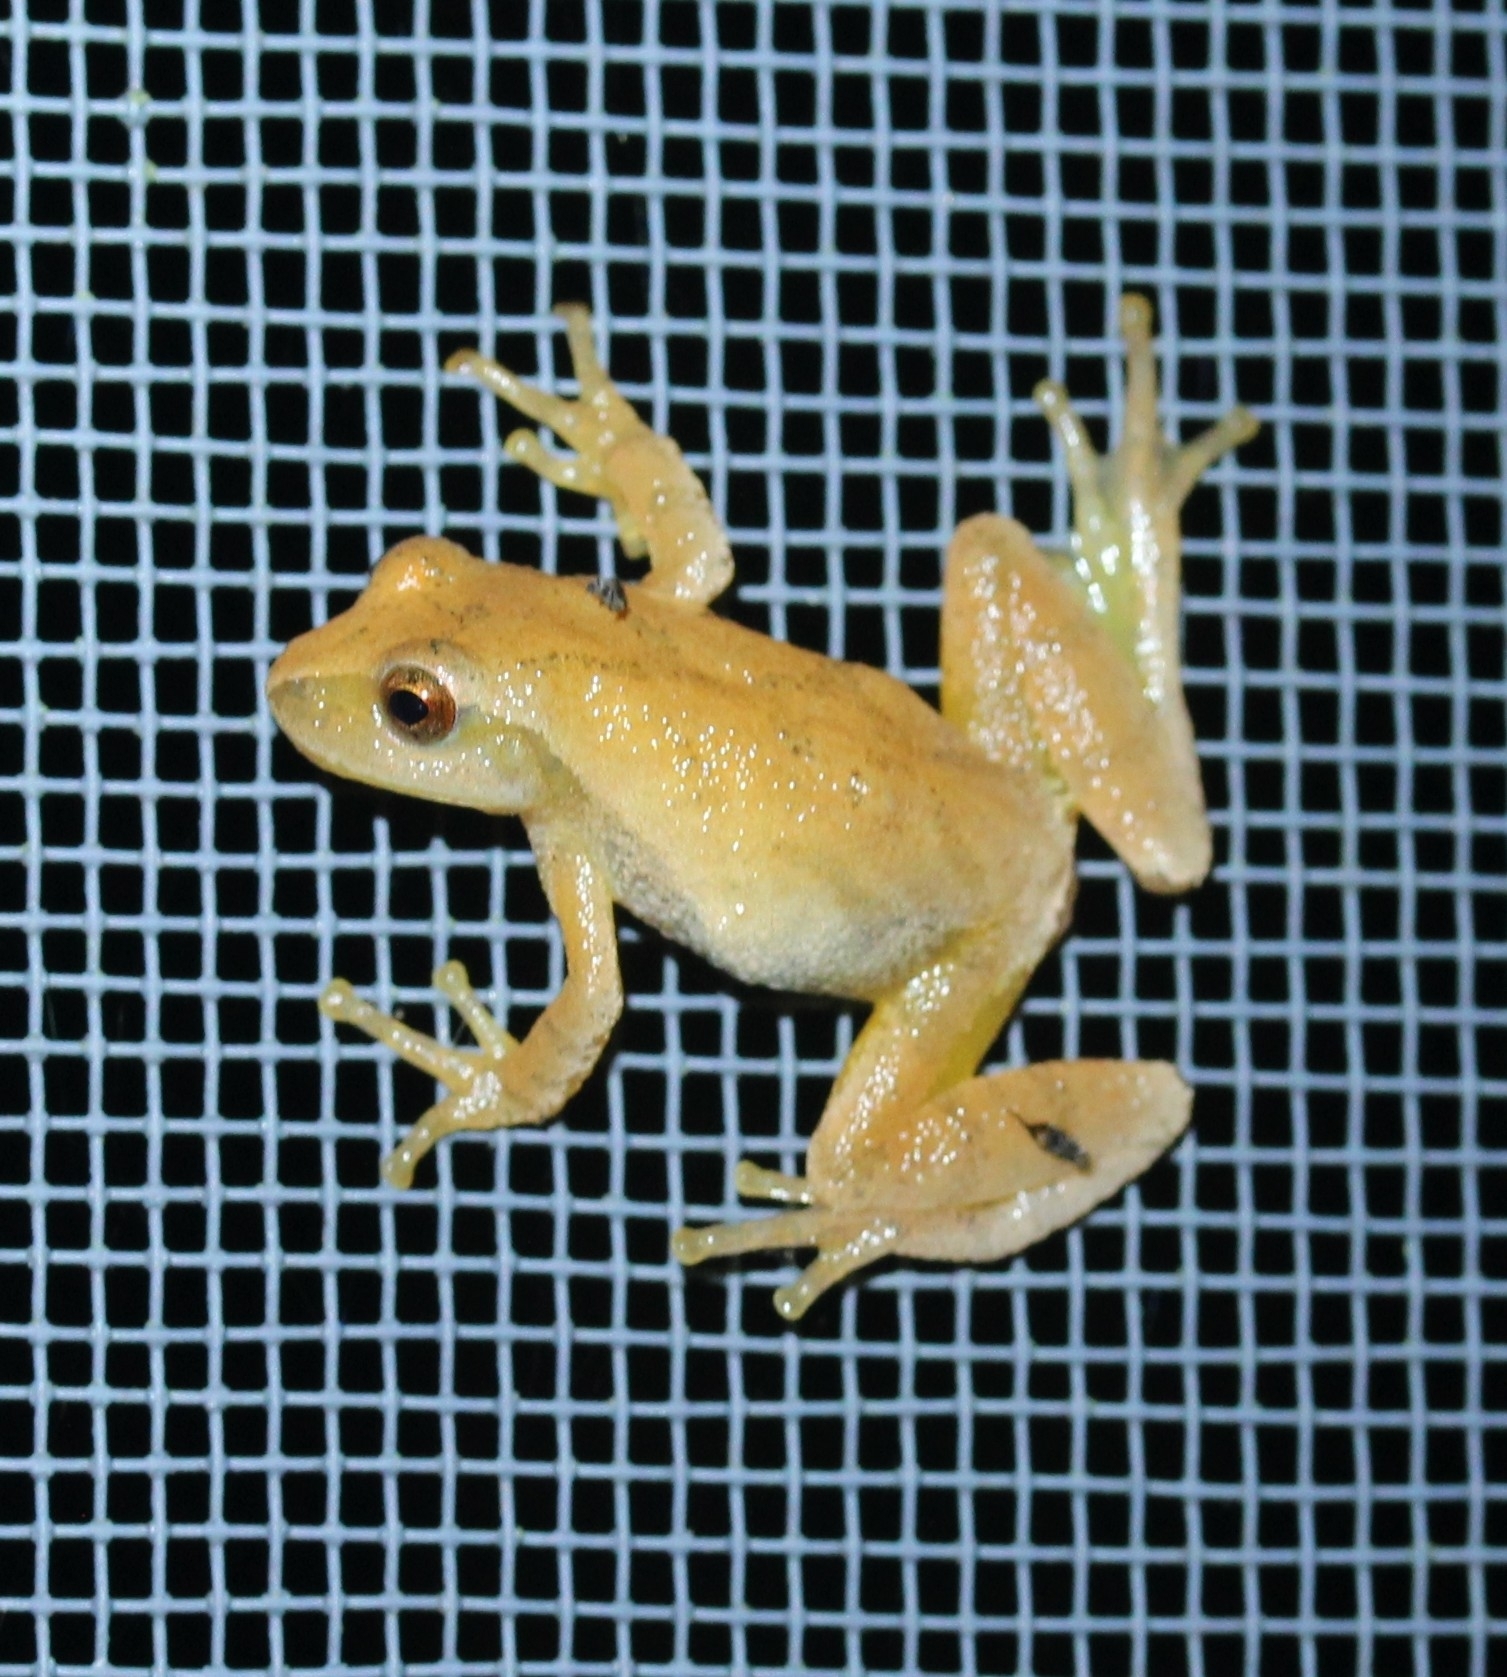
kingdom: Animalia
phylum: Chordata
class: Amphibia
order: Anura
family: Hylidae
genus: Pseudacris
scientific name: Pseudacris crucifer
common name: Spring peeper
